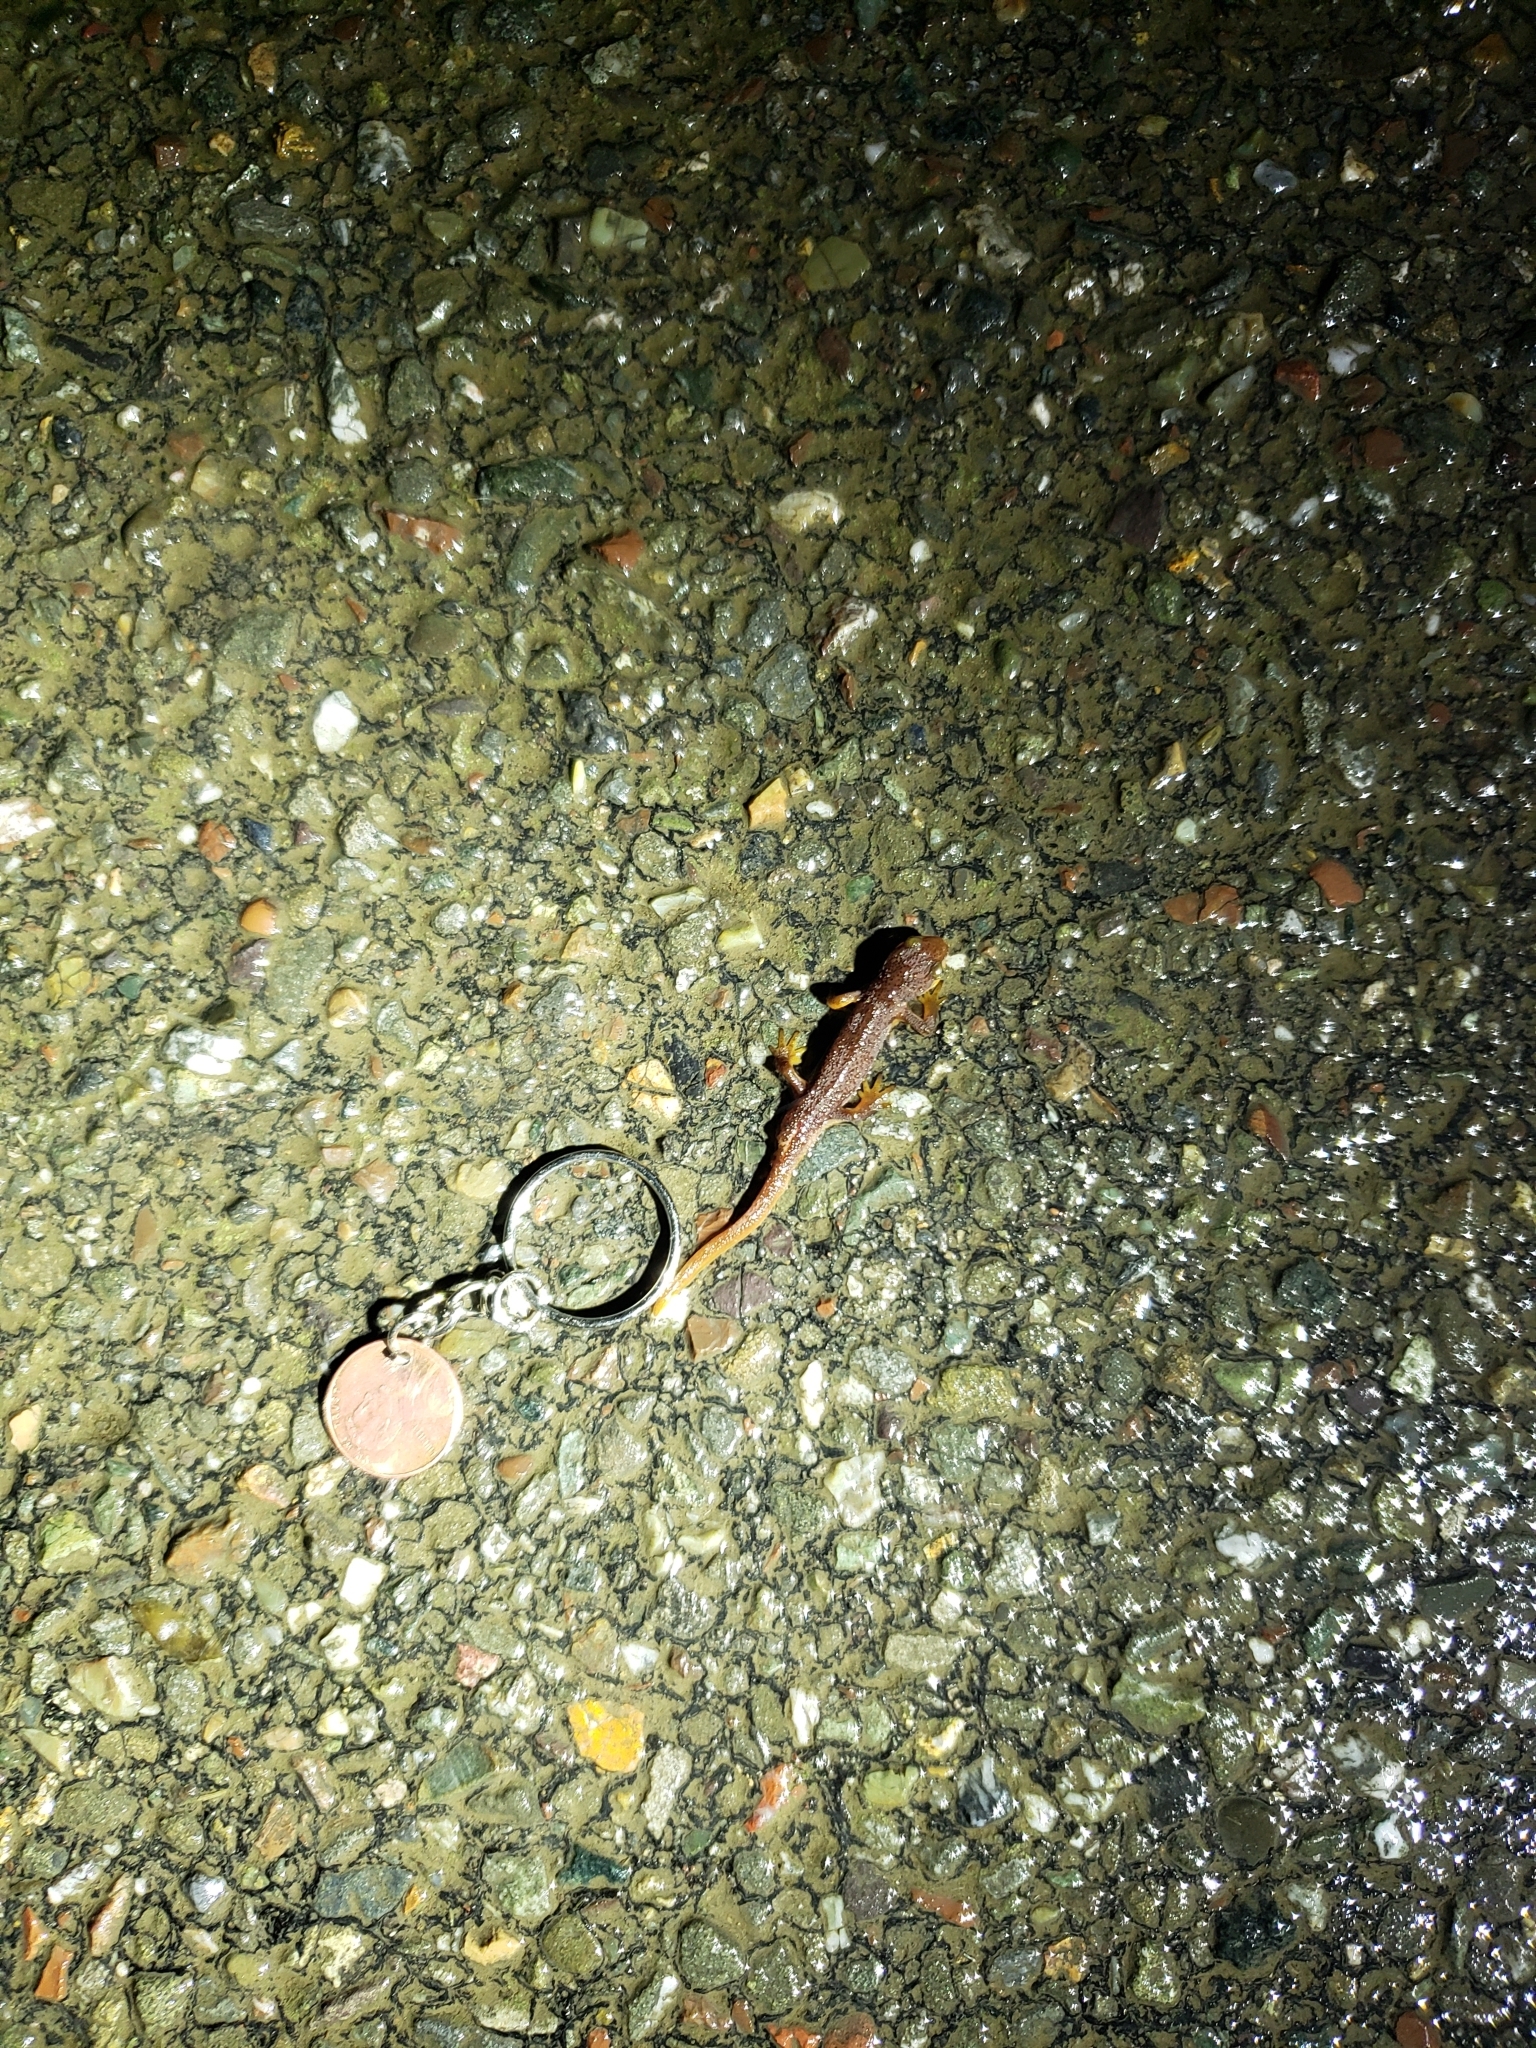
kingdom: Animalia
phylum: Chordata
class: Amphibia
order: Caudata
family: Salamandridae
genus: Taricha
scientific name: Taricha torosa
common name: California newt
